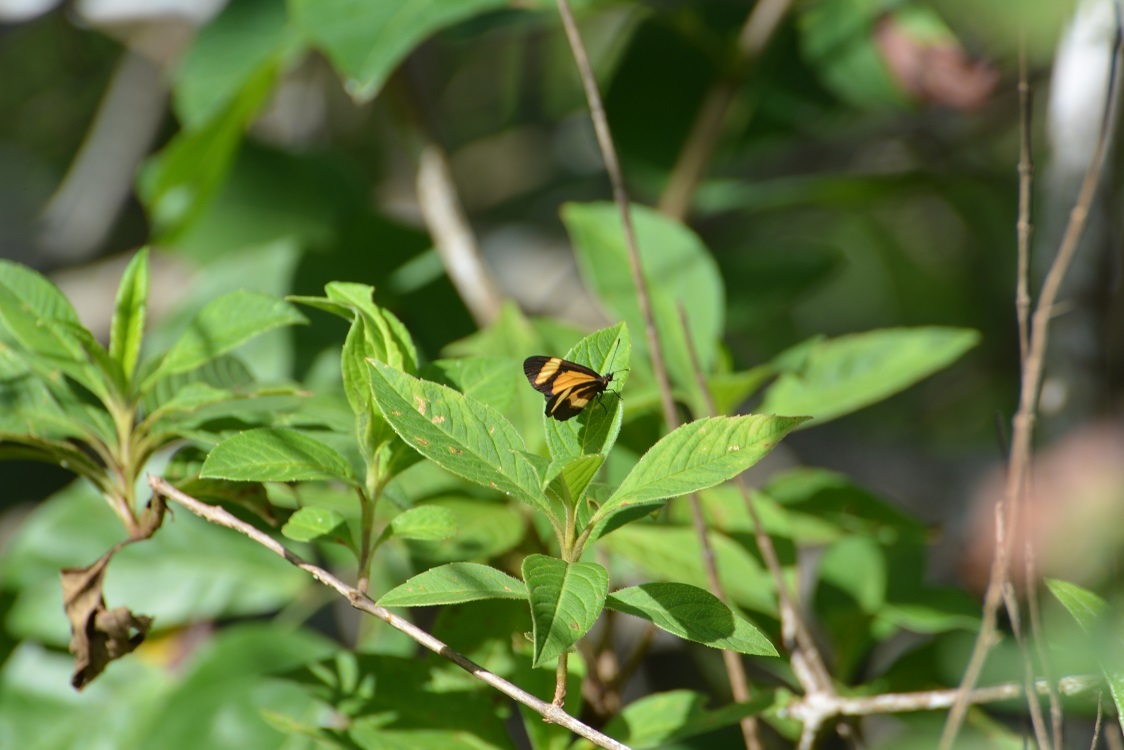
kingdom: Animalia
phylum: Arthropoda
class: Insecta
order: Lepidoptera
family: Nymphalidae
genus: Microtia
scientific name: Microtia elva
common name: Elf
